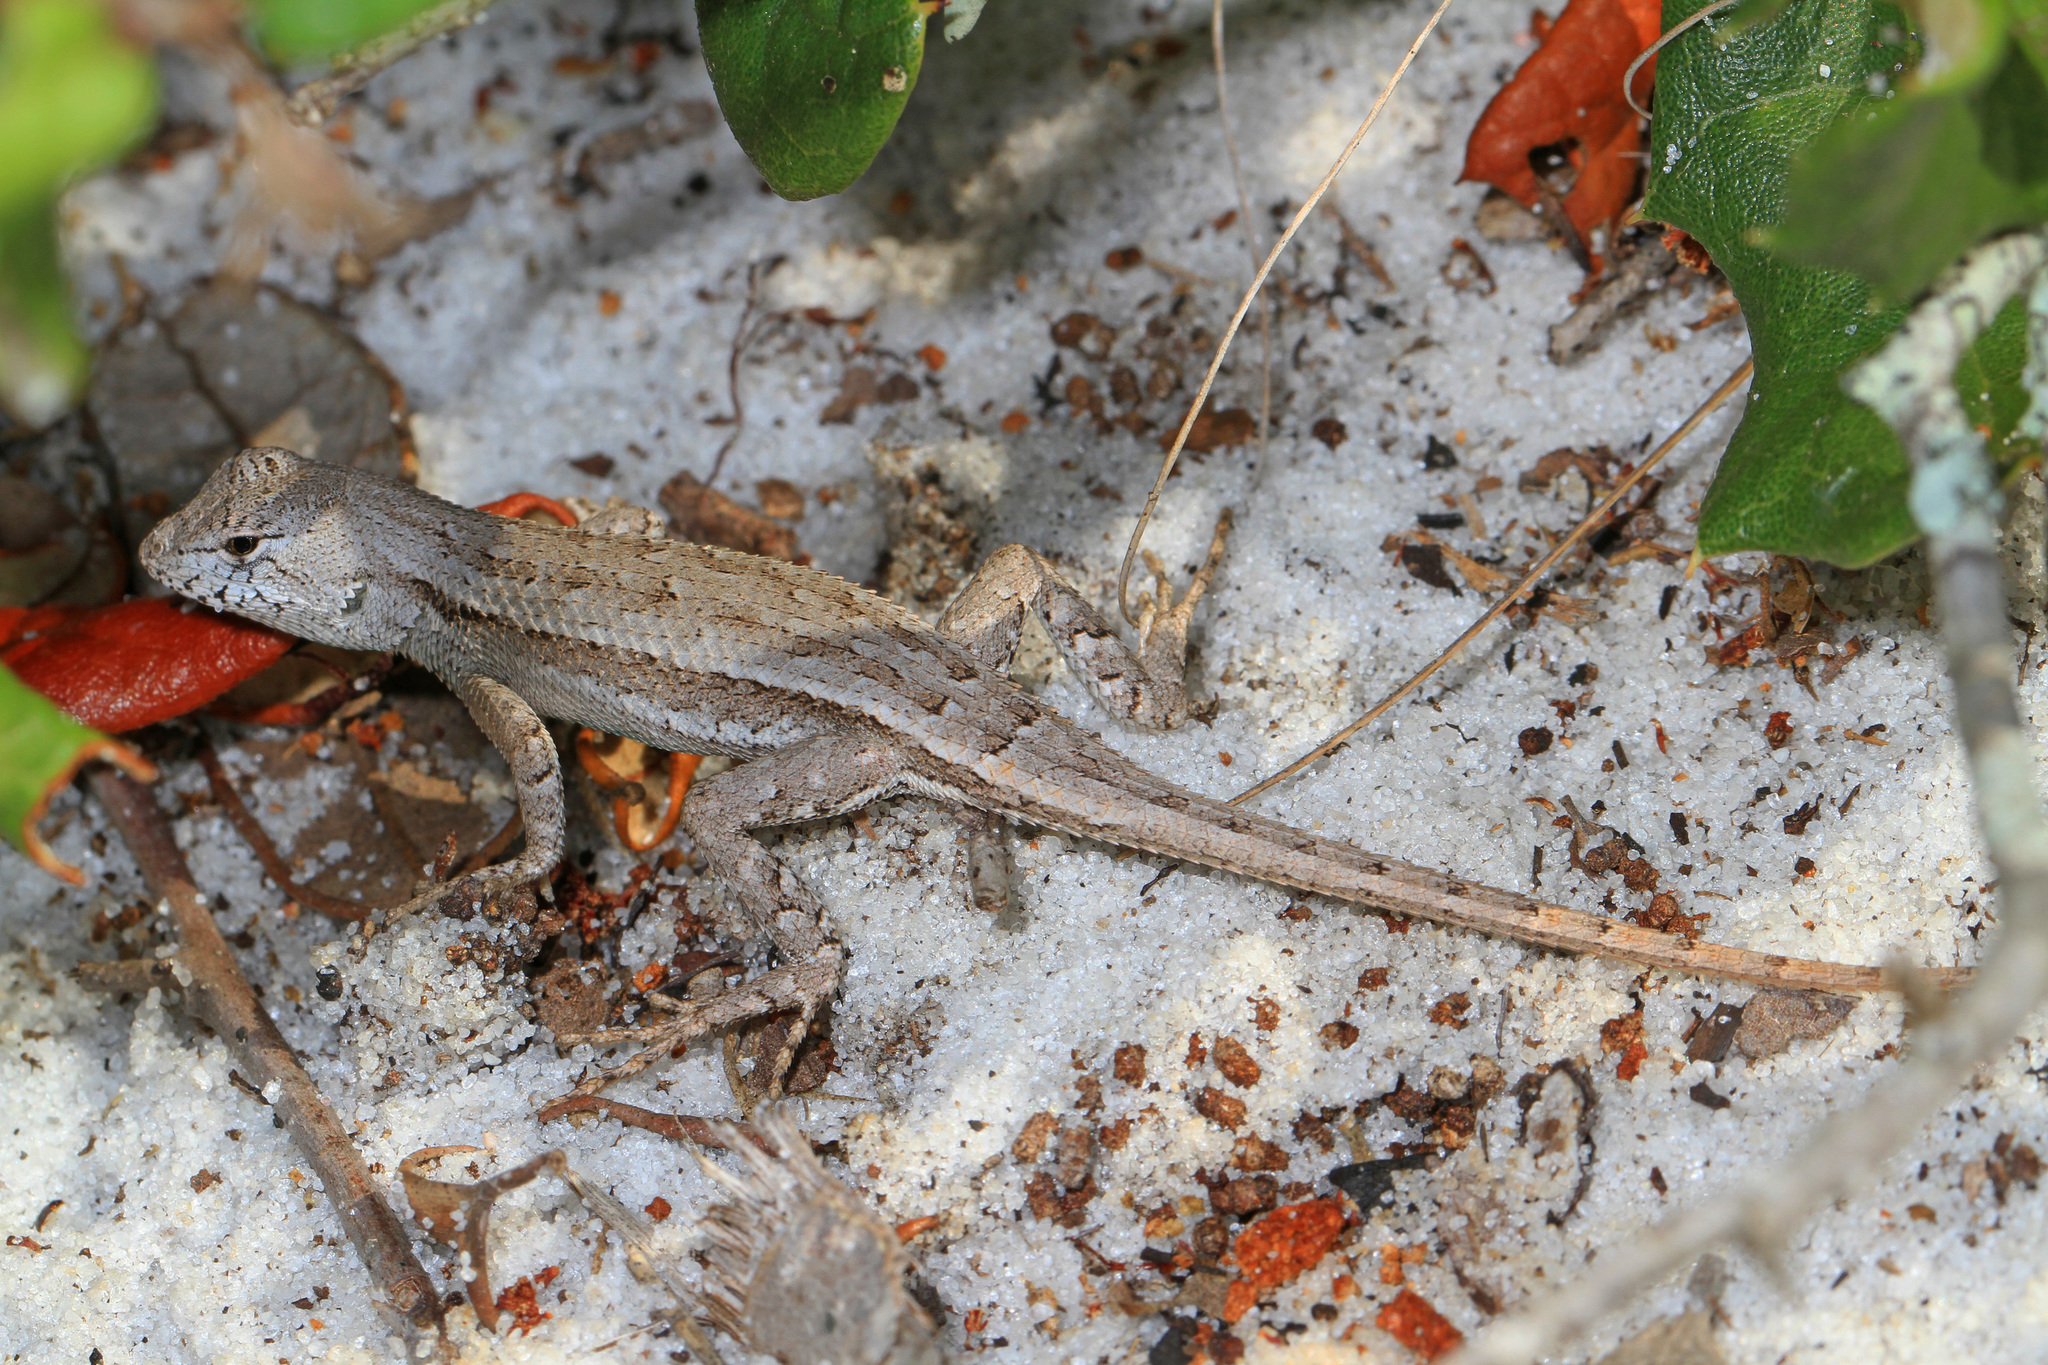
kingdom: Animalia
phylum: Chordata
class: Squamata
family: Phrynosomatidae
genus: Sceloporus
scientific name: Sceloporus woodi
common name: Florida scrub lizard
